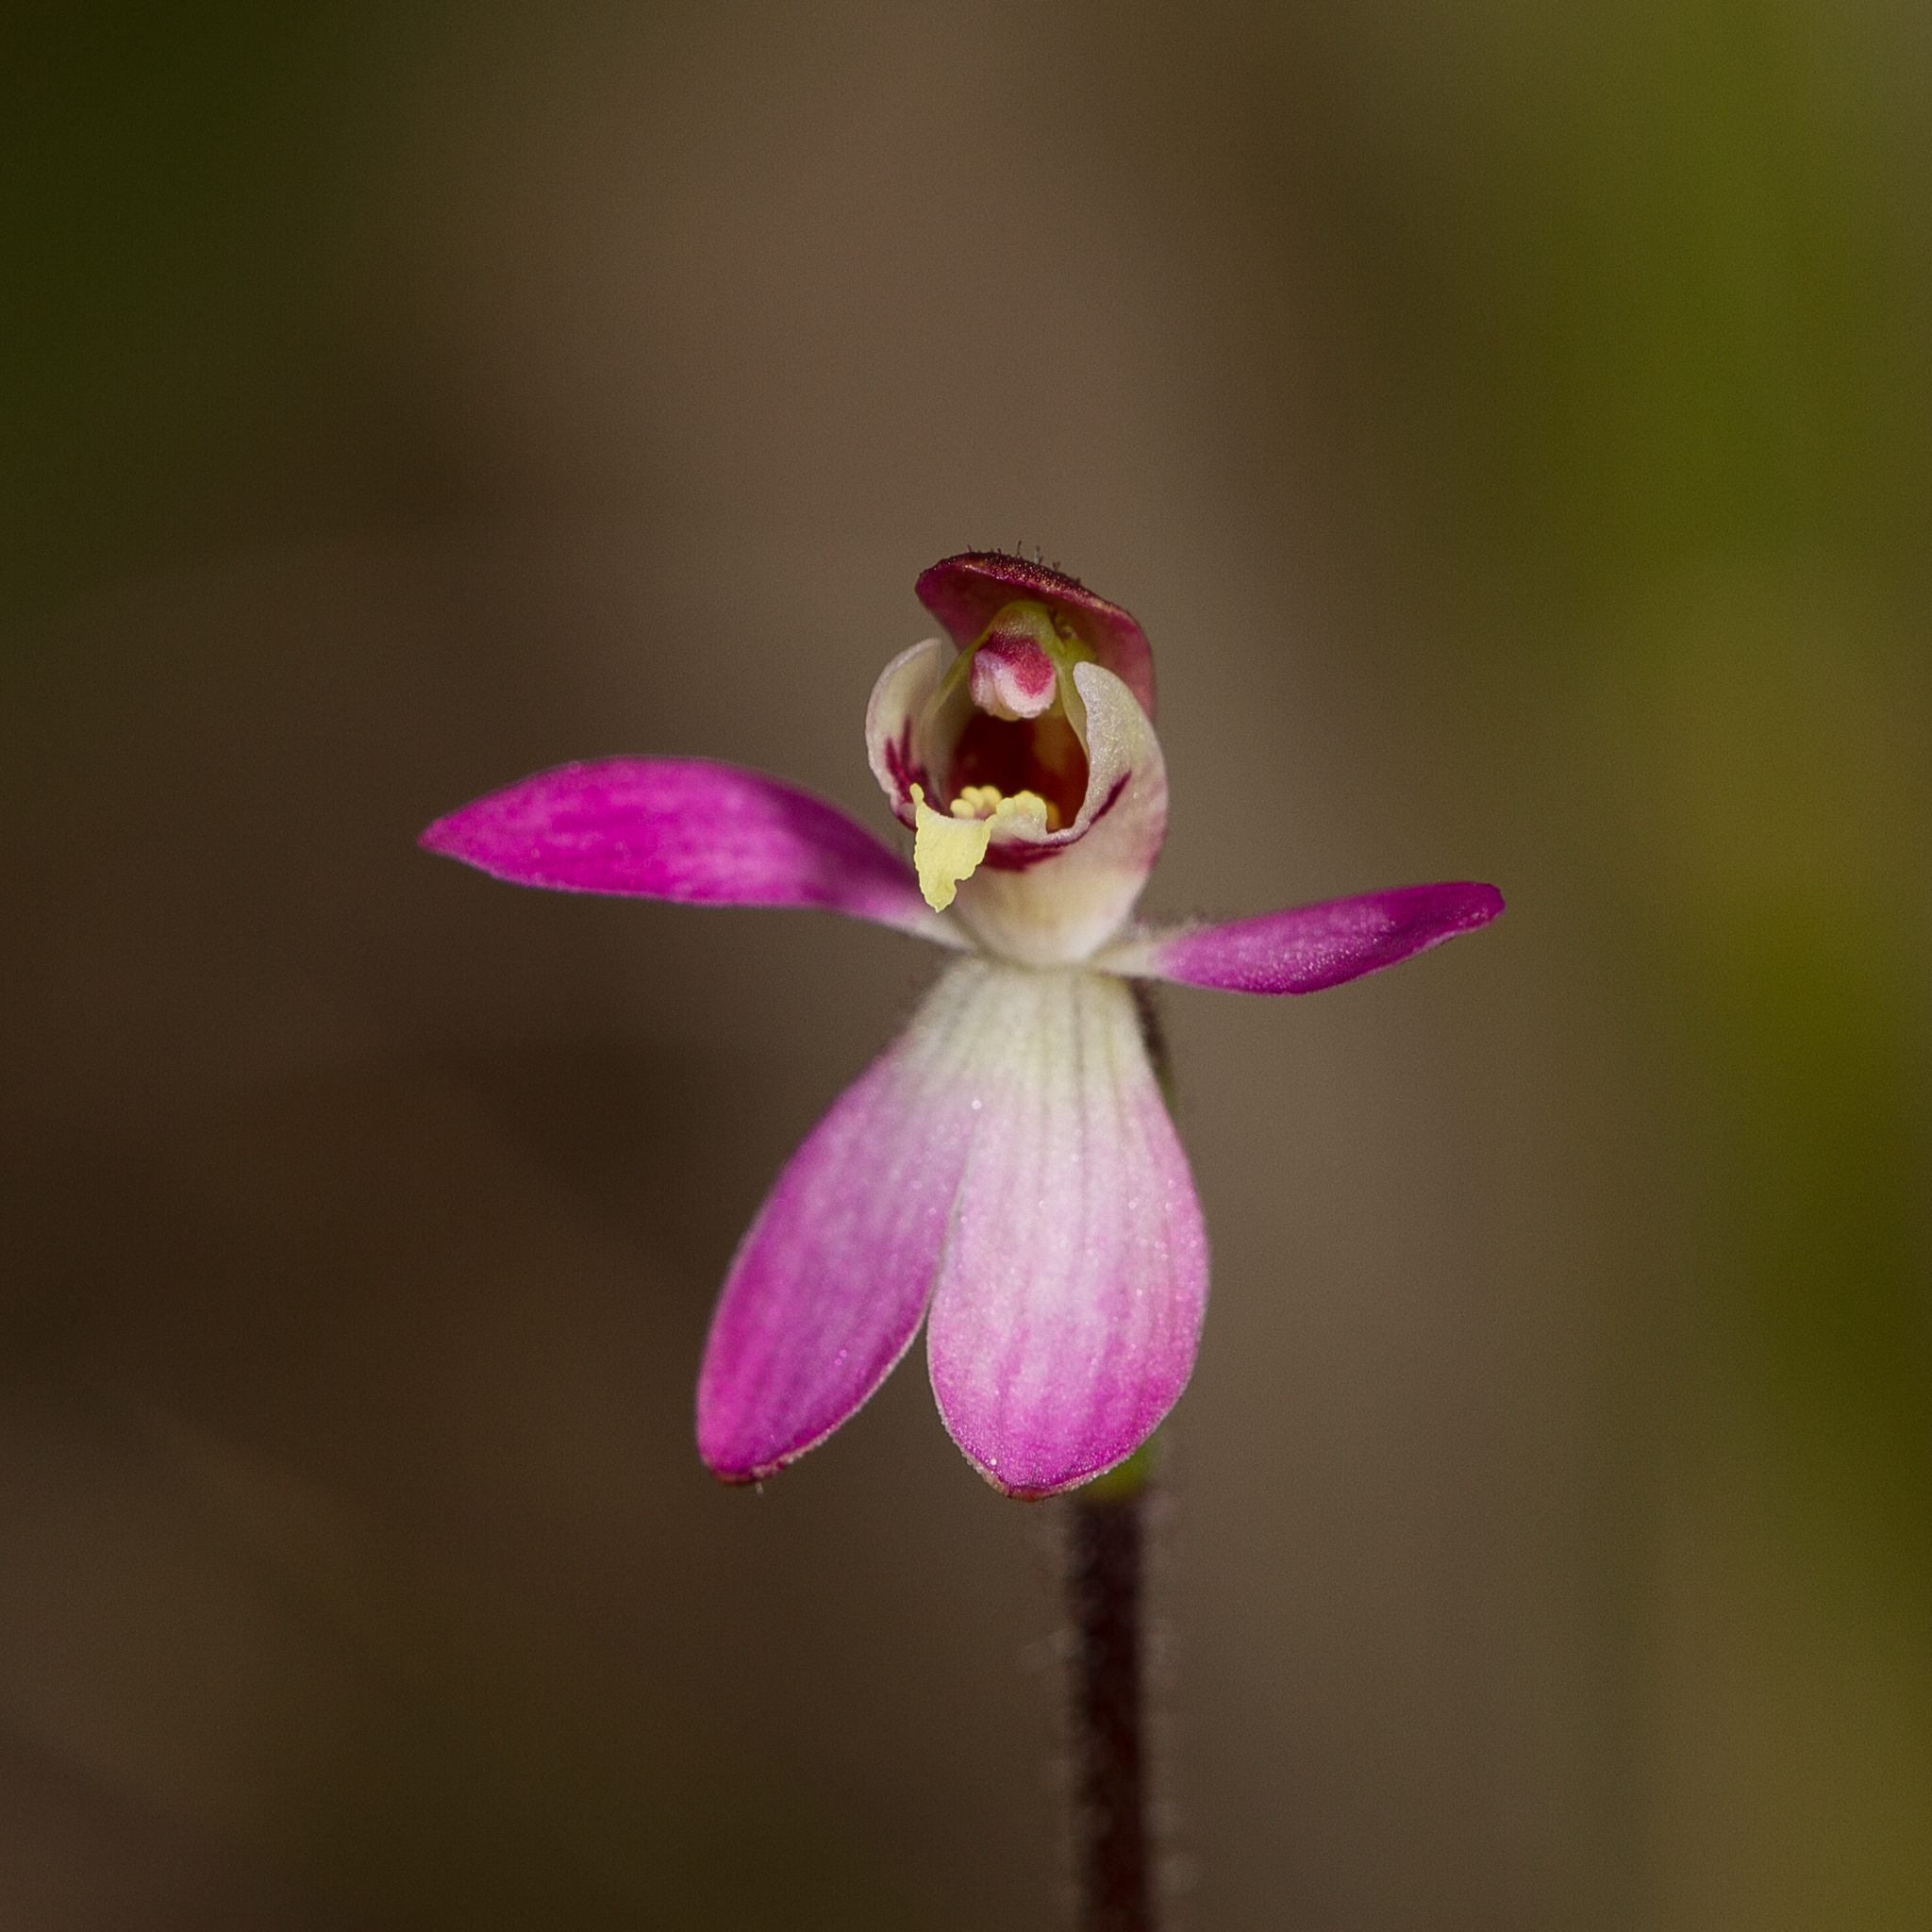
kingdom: Plantae
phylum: Tracheophyta
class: Liliopsida
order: Asparagales
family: Orchidaceae
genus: Caladenia
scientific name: Caladenia pusilla
